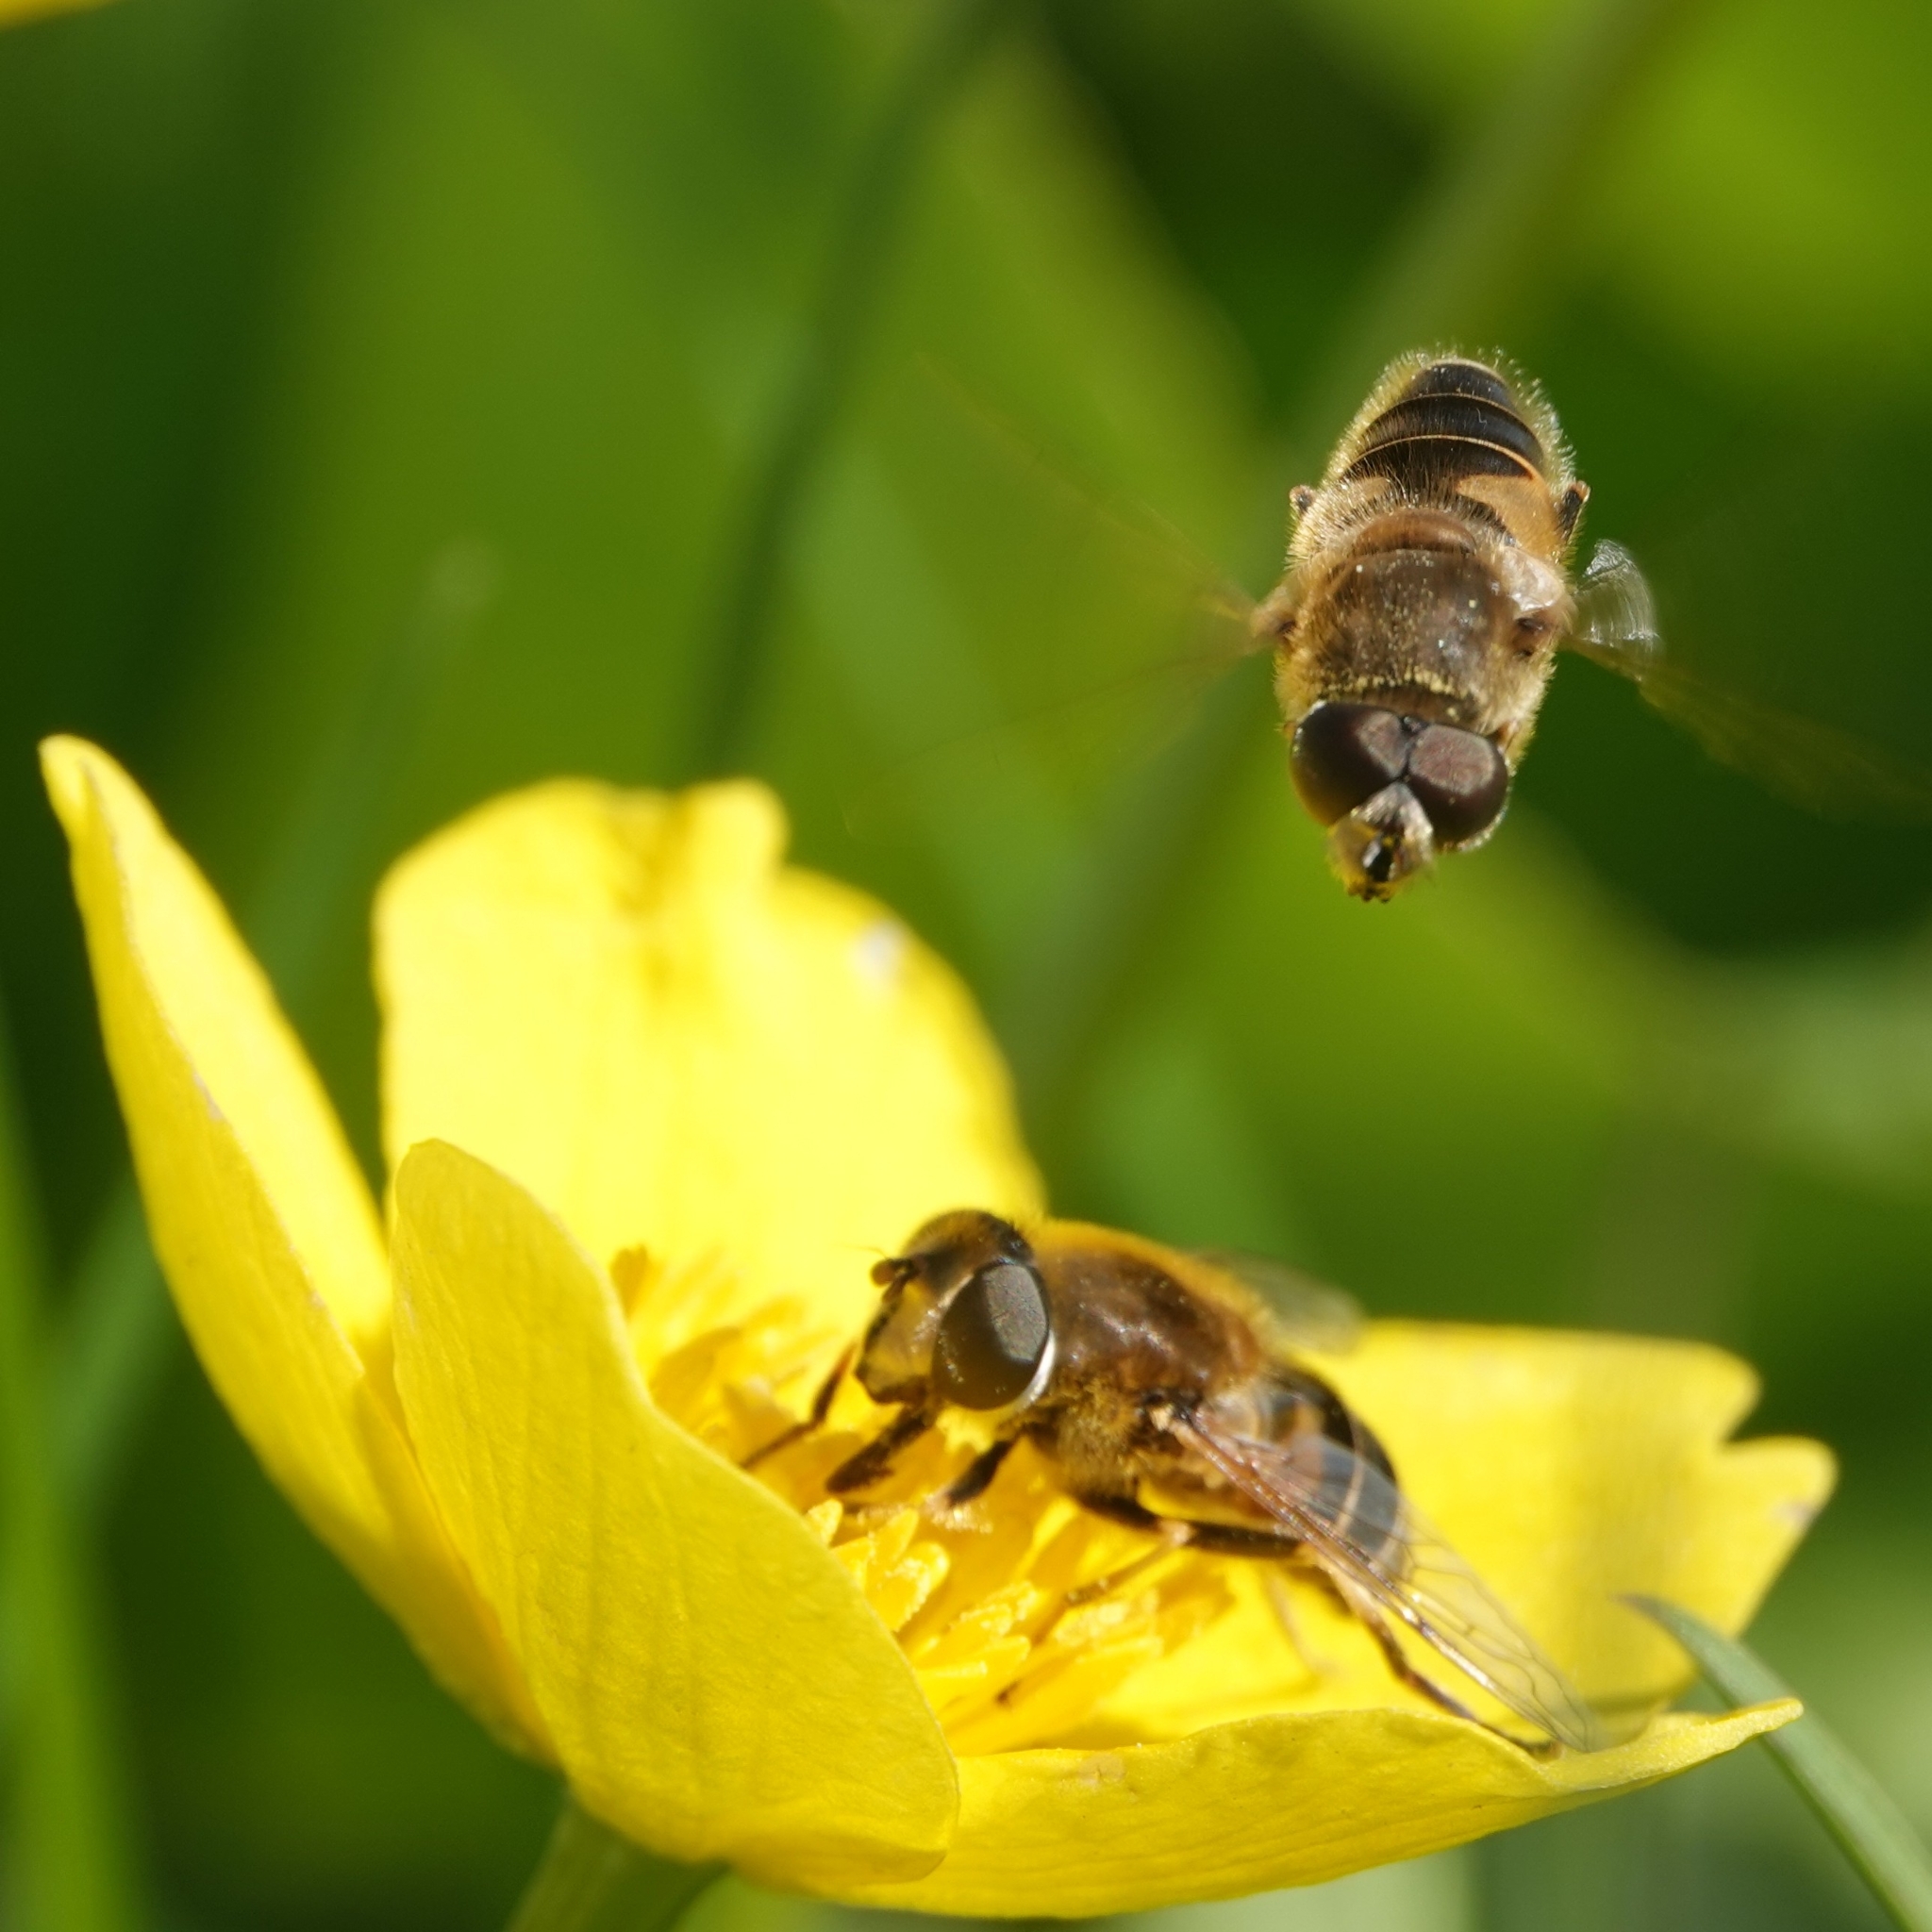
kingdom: Animalia
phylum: Arthropoda
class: Insecta
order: Diptera
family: Syrphidae
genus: Eristalis
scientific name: Eristalis nemorum
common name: Orange-spined drone fly
